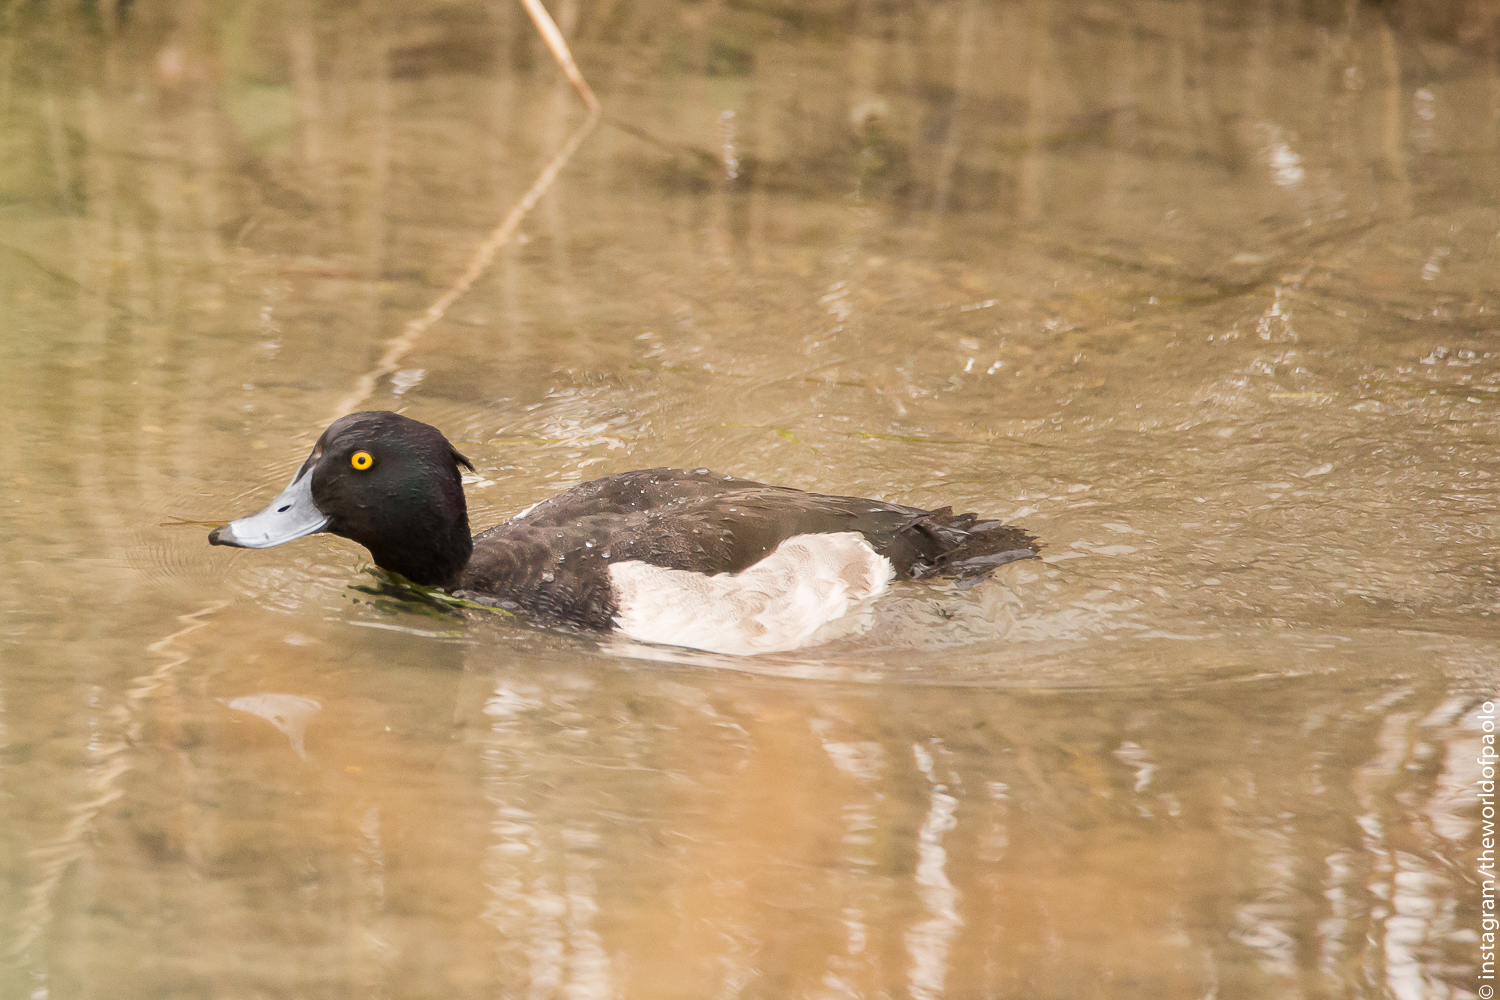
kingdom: Animalia
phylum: Chordata
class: Aves
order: Anseriformes
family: Anatidae
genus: Aythya
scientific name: Aythya fuligula
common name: Tufted duck
